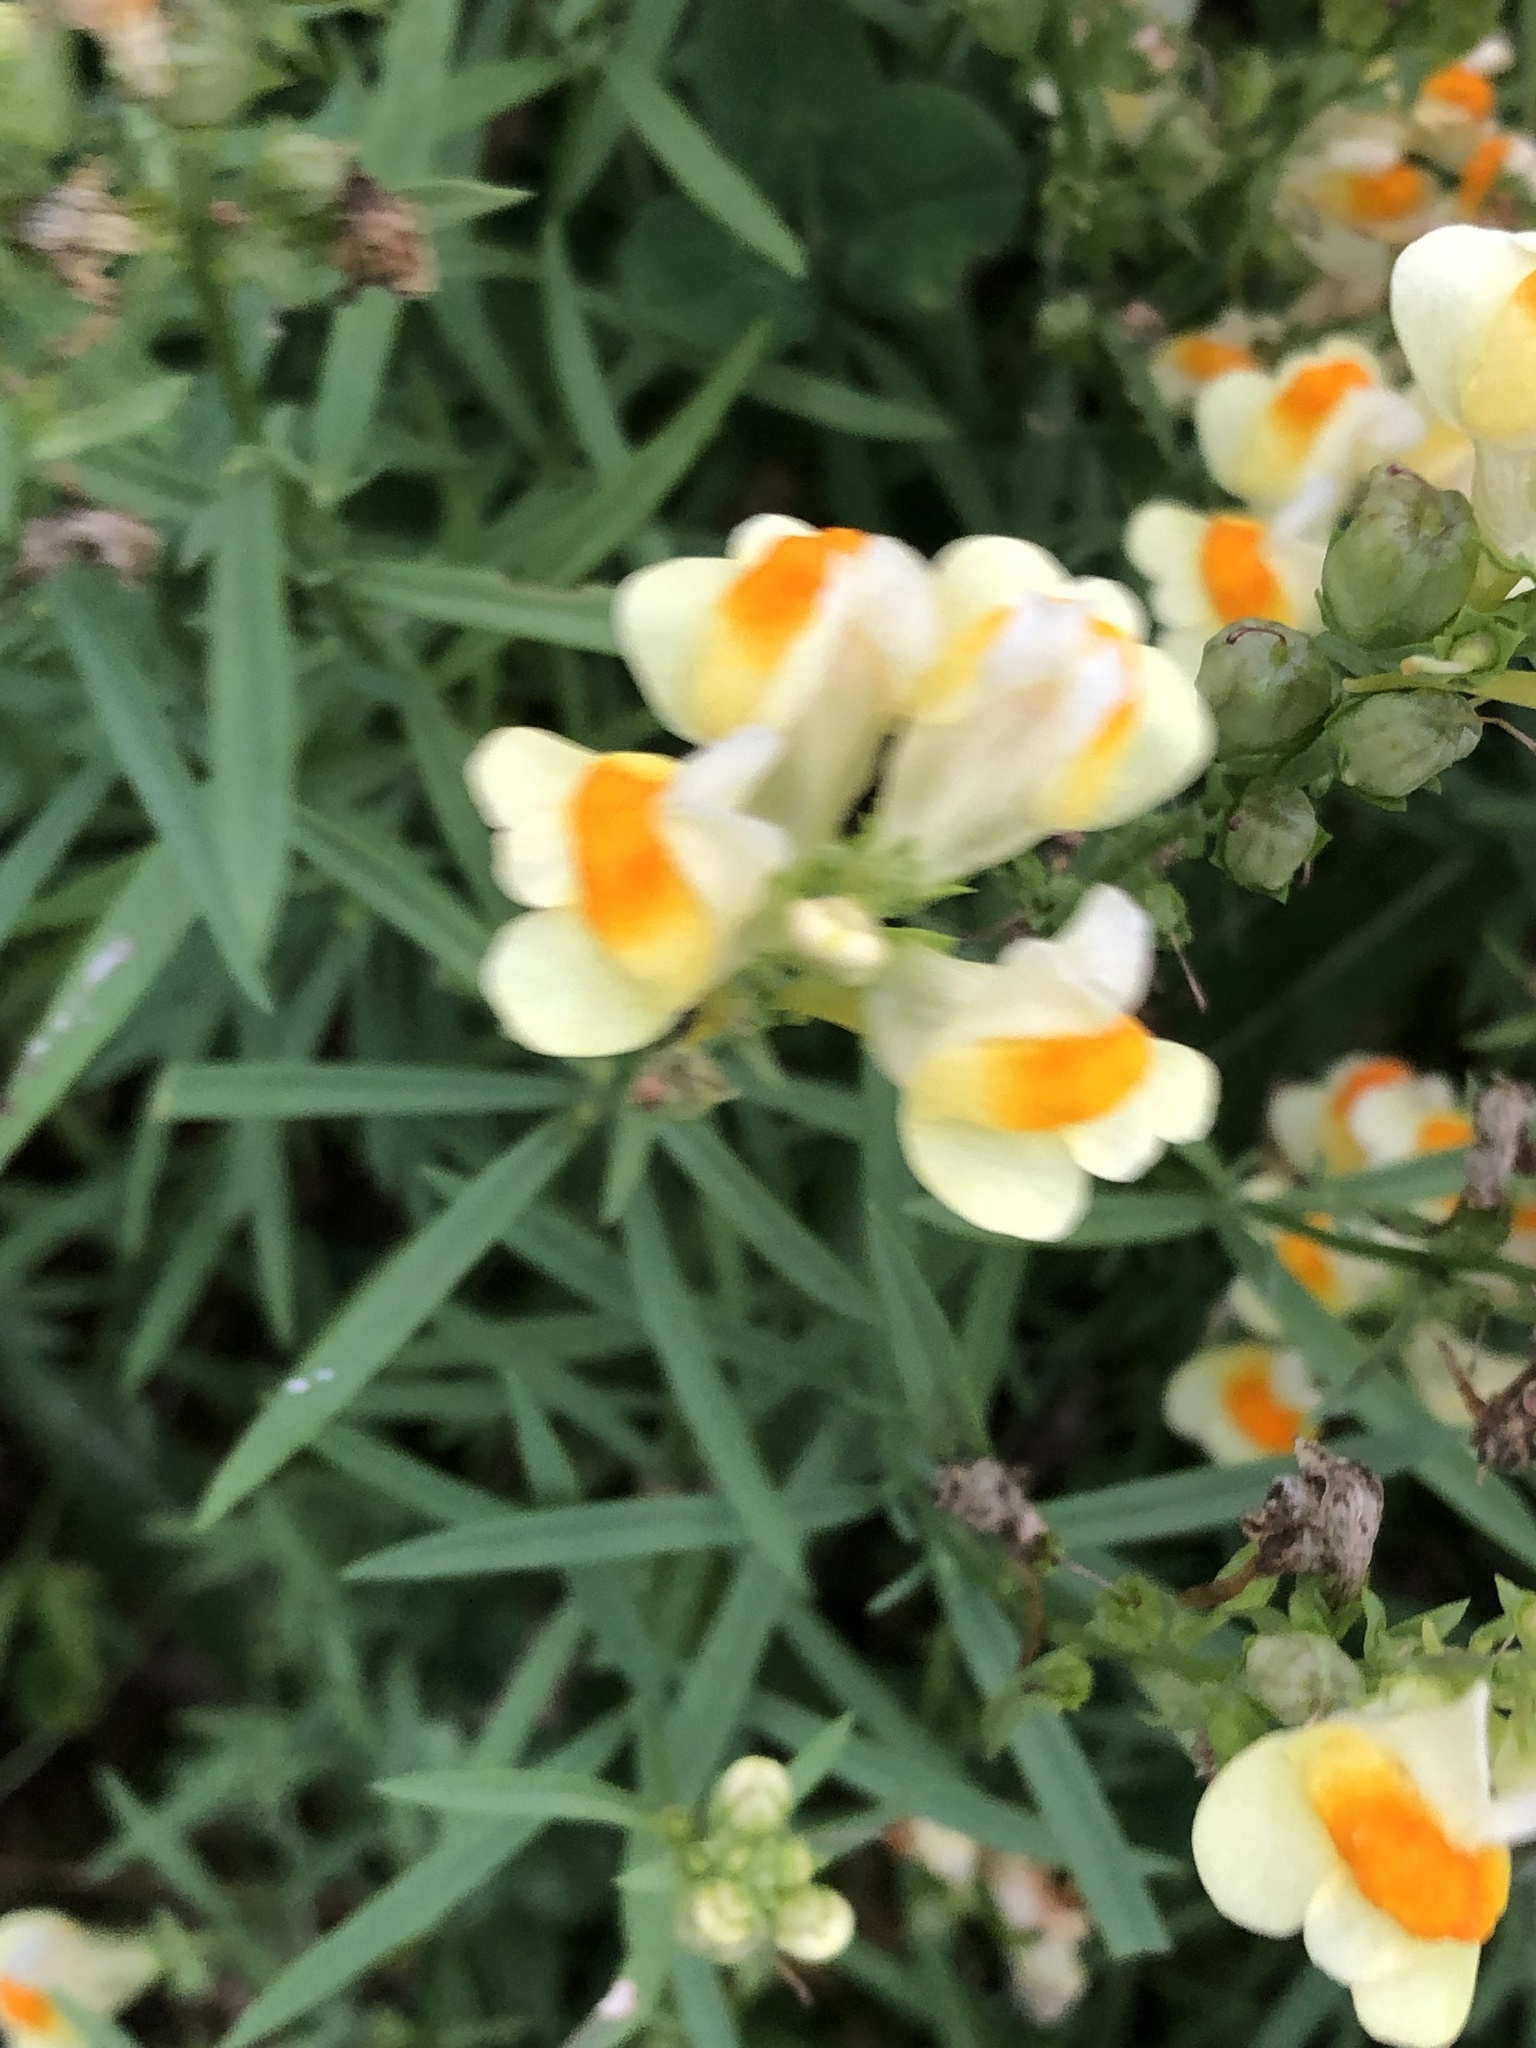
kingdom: Plantae
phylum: Tracheophyta
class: Magnoliopsida
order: Lamiales
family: Plantaginaceae
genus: Linaria
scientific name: Linaria vulgaris
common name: Butter and eggs
